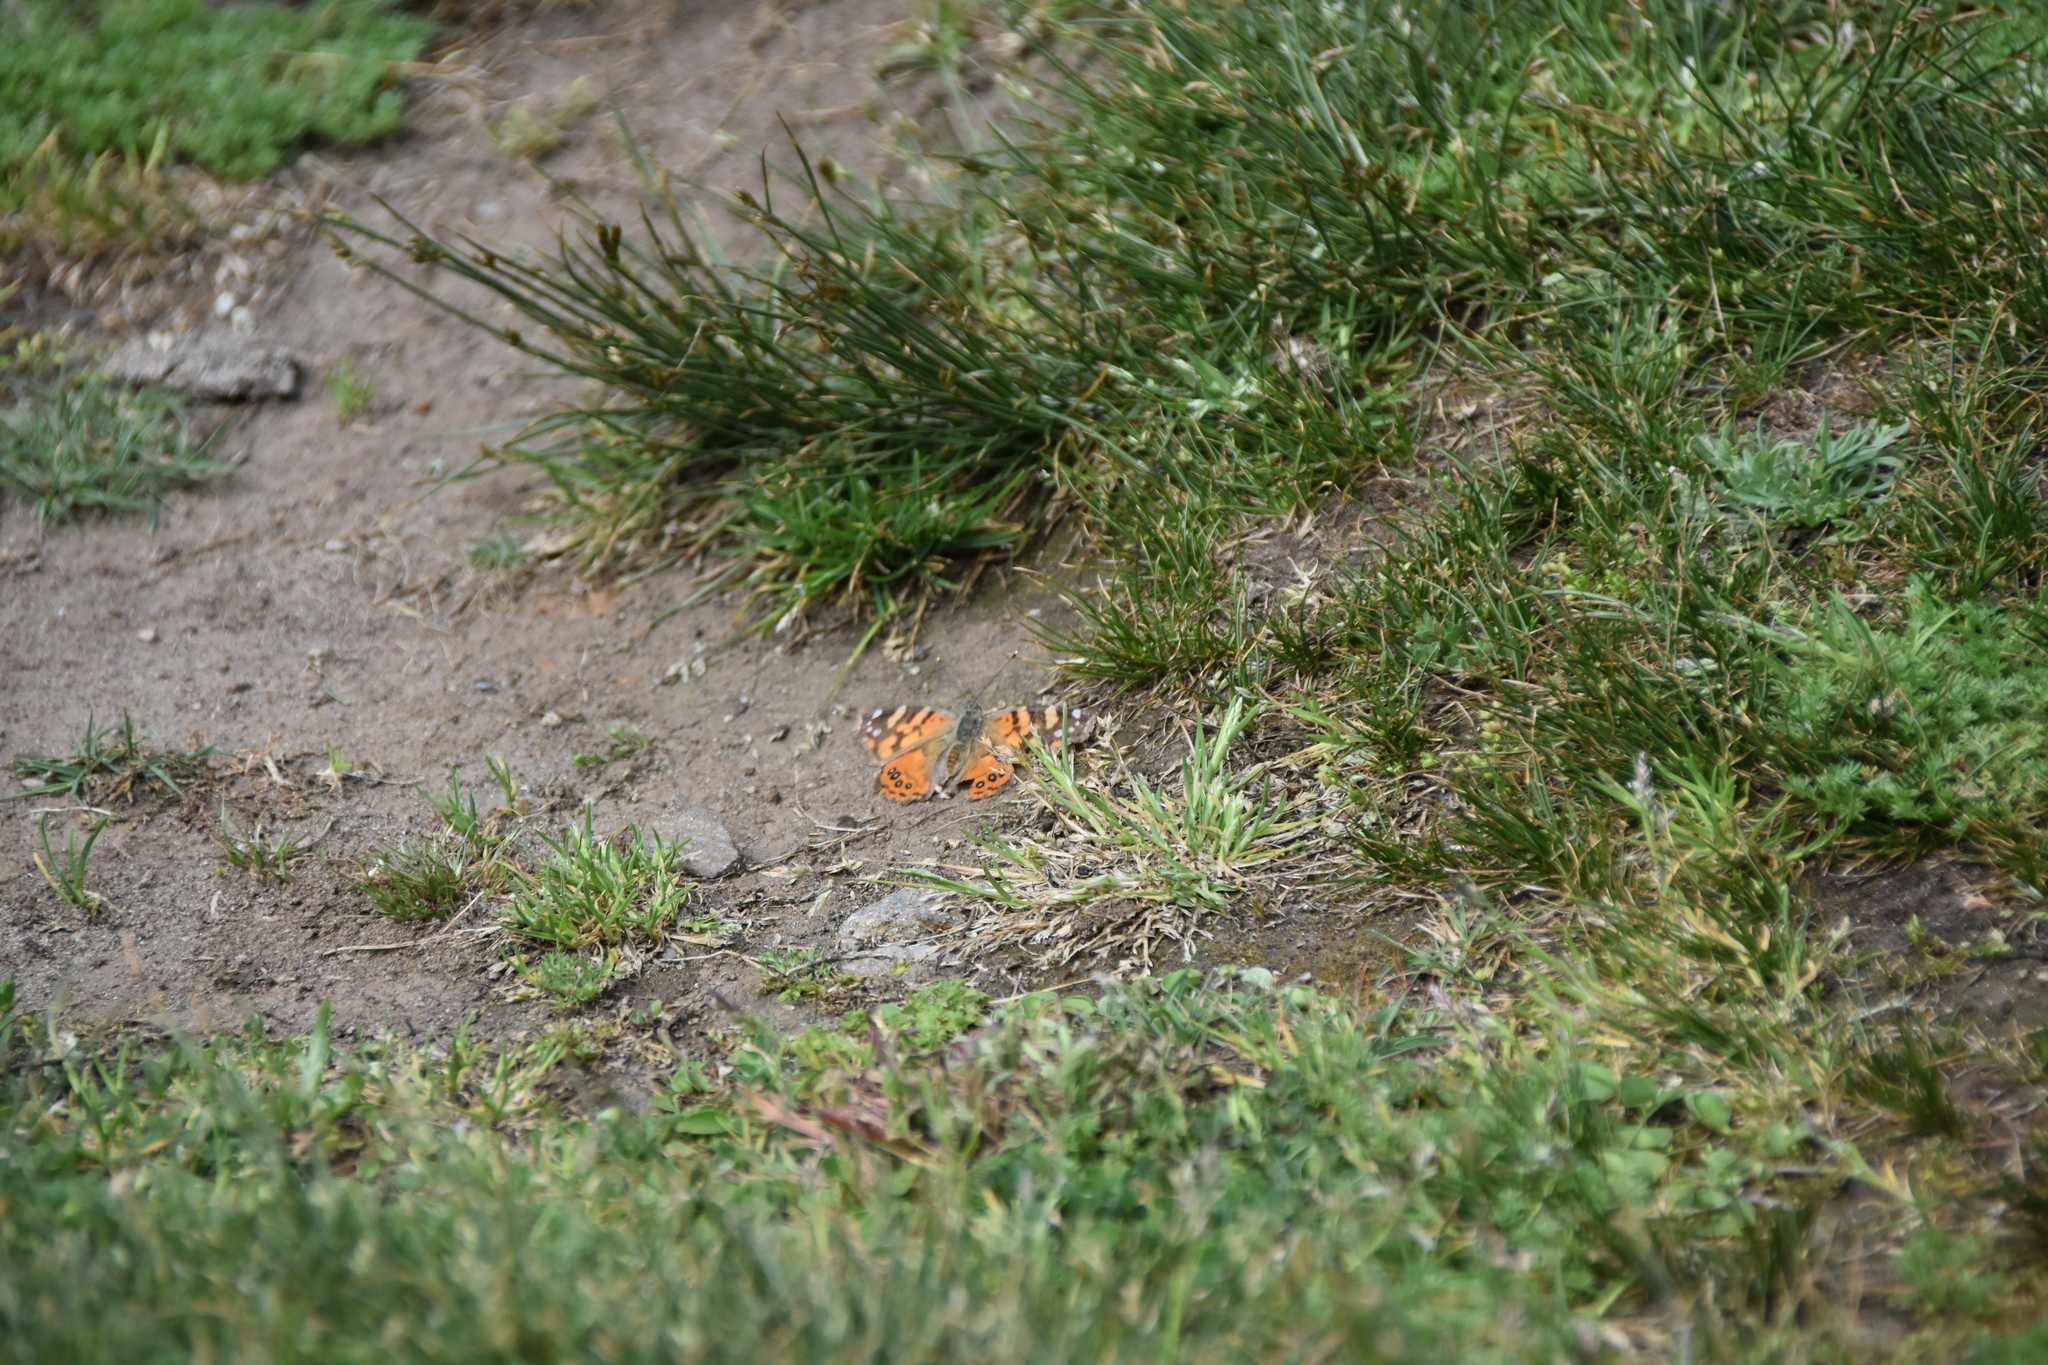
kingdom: Animalia
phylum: Arthropoda
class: Insecta
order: Lepidoptera
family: Nymphalidae
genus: Vanessa
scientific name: Vanessa carye
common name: Subtropical lady
